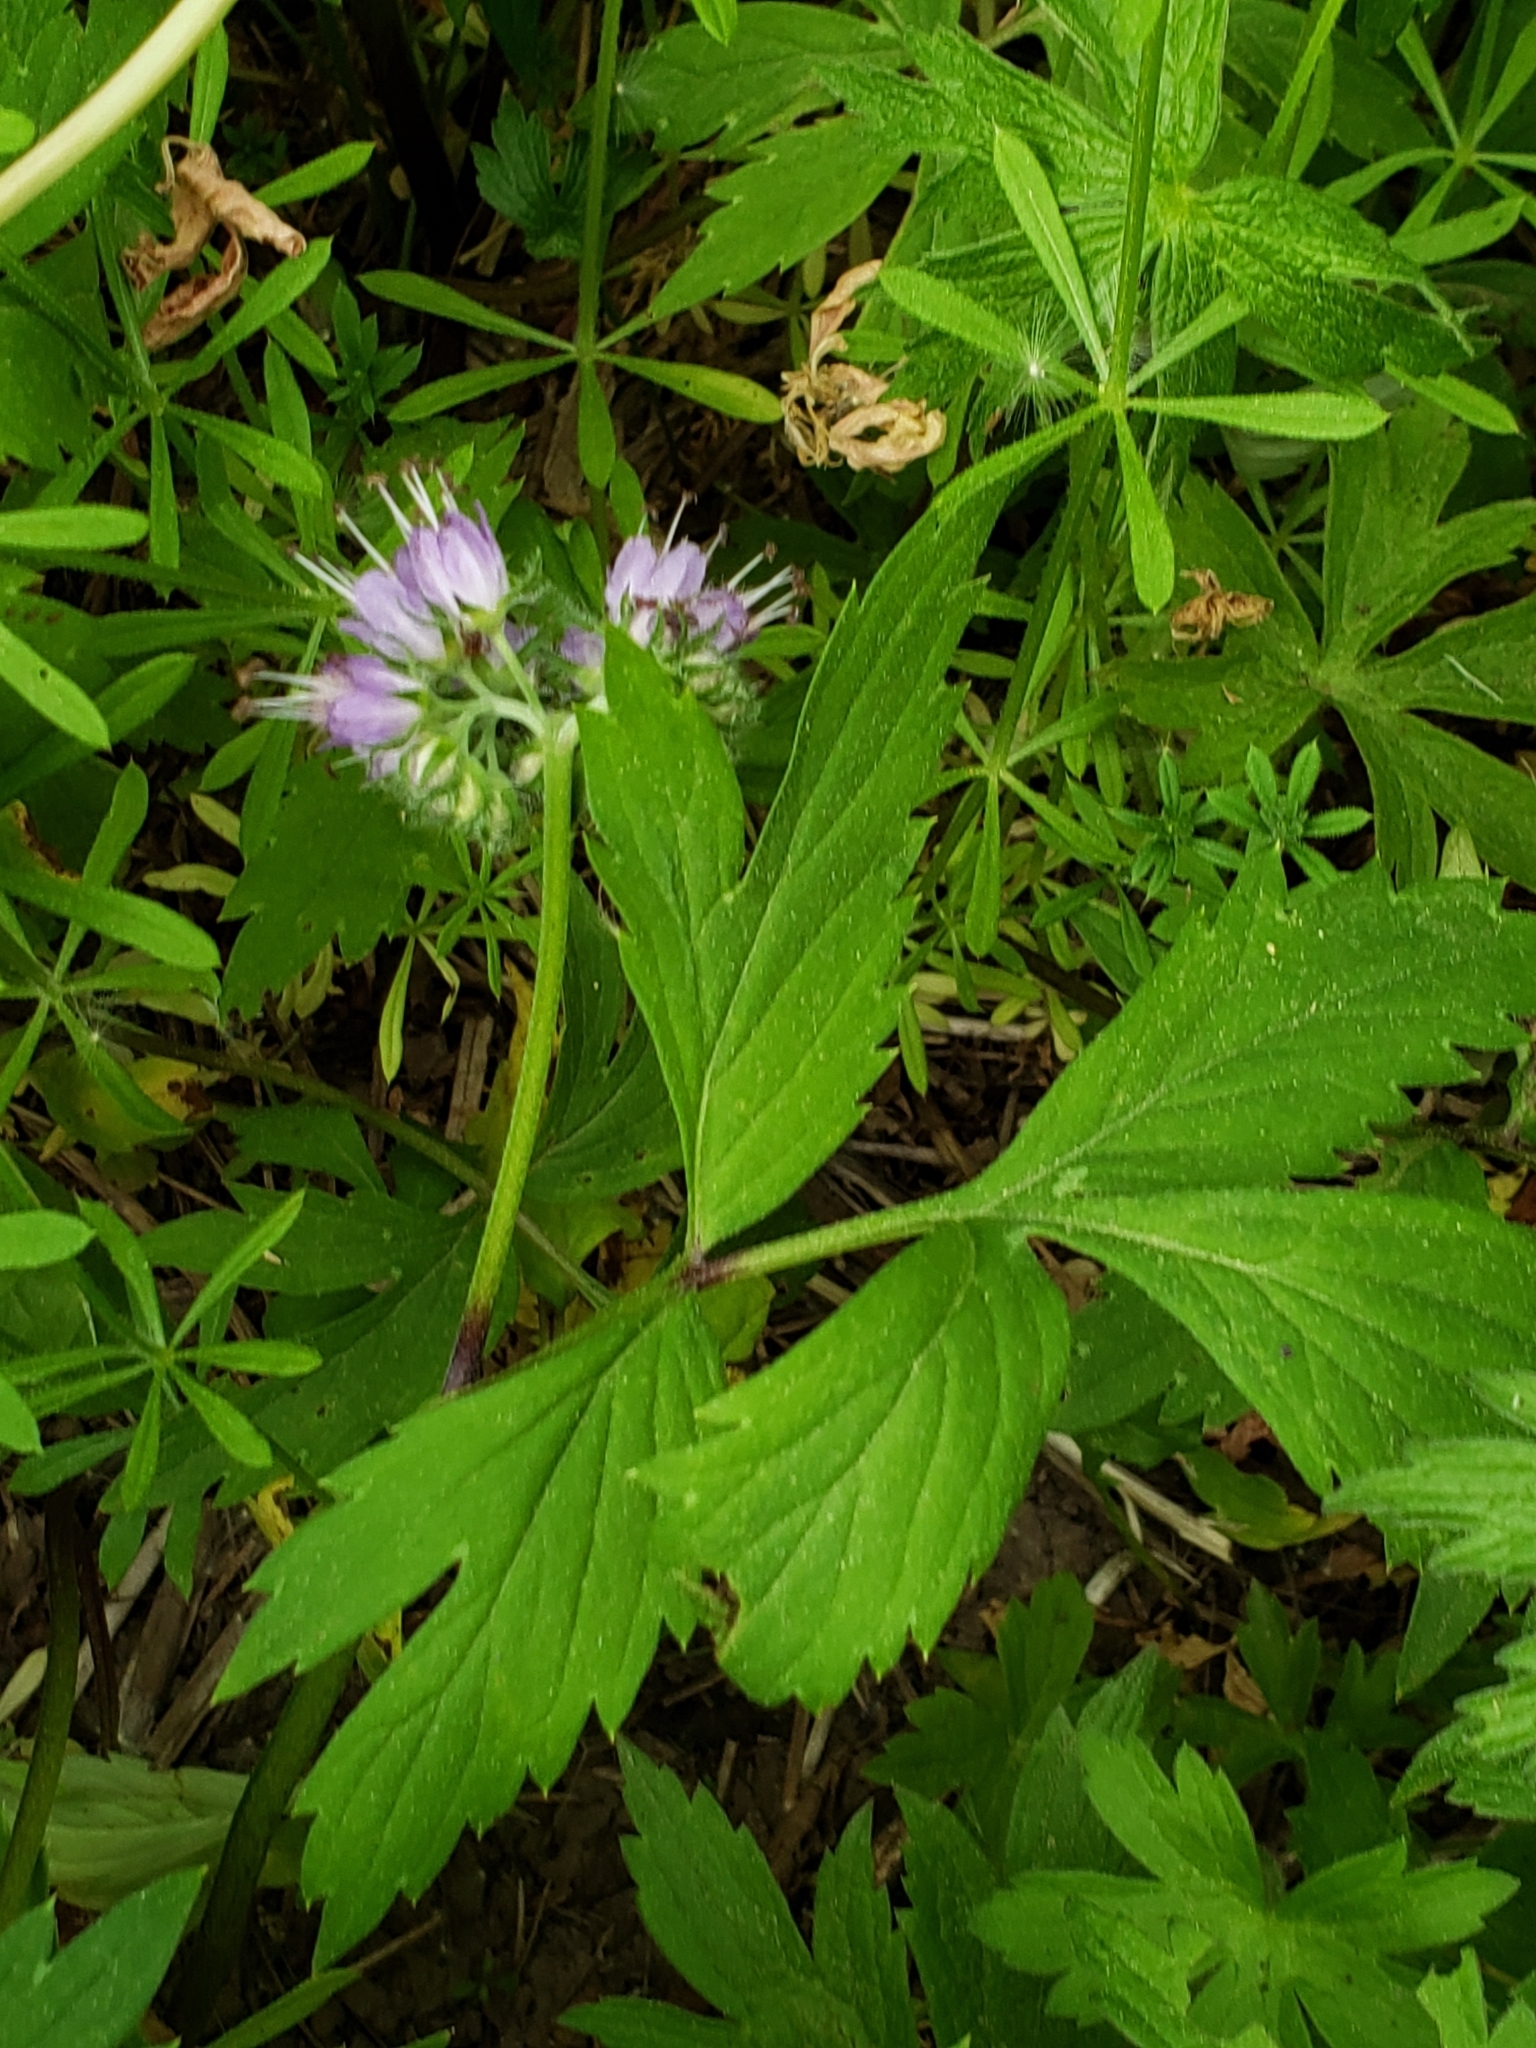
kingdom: Plantae
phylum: Tracheophyta
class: Magnoliopsida
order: Boraginales
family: Hydrophyllaceae
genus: Hydrophyllum
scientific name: Hydrophyllum virginianum
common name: Virginia waterleaf
